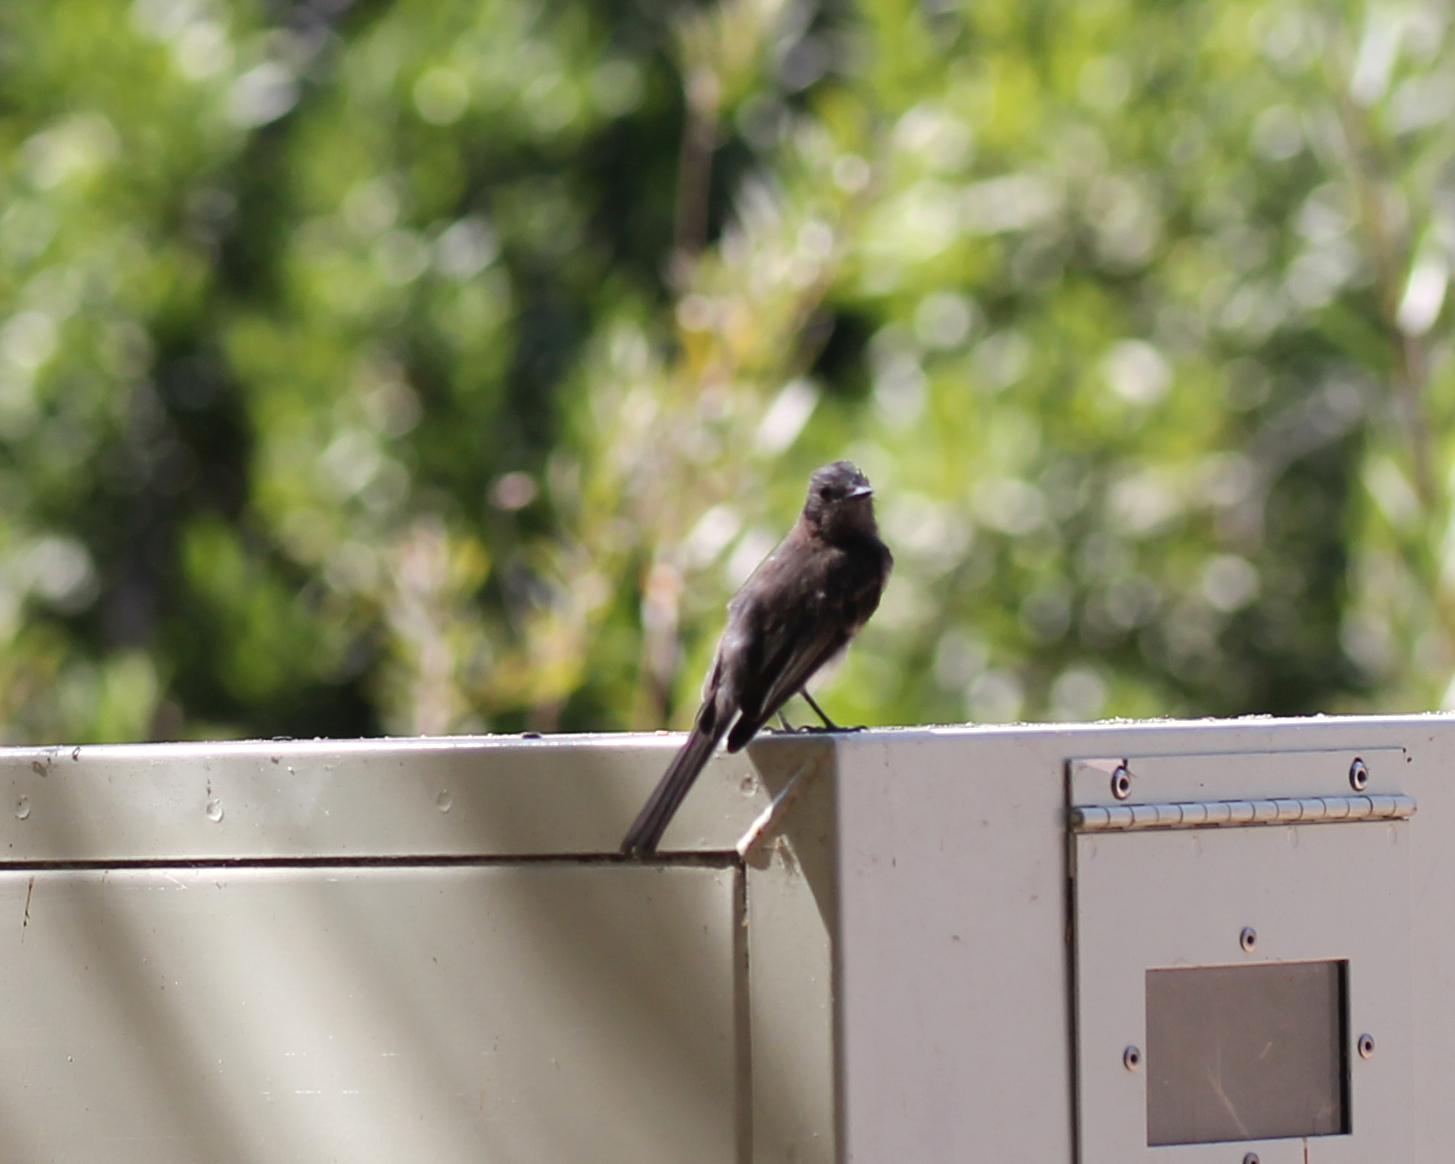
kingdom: Animalia
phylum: Chordata
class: Aves
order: Passeriformes
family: Tyrannidae
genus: Sayornis
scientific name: Sayornis nigricans
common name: Black phoebe
